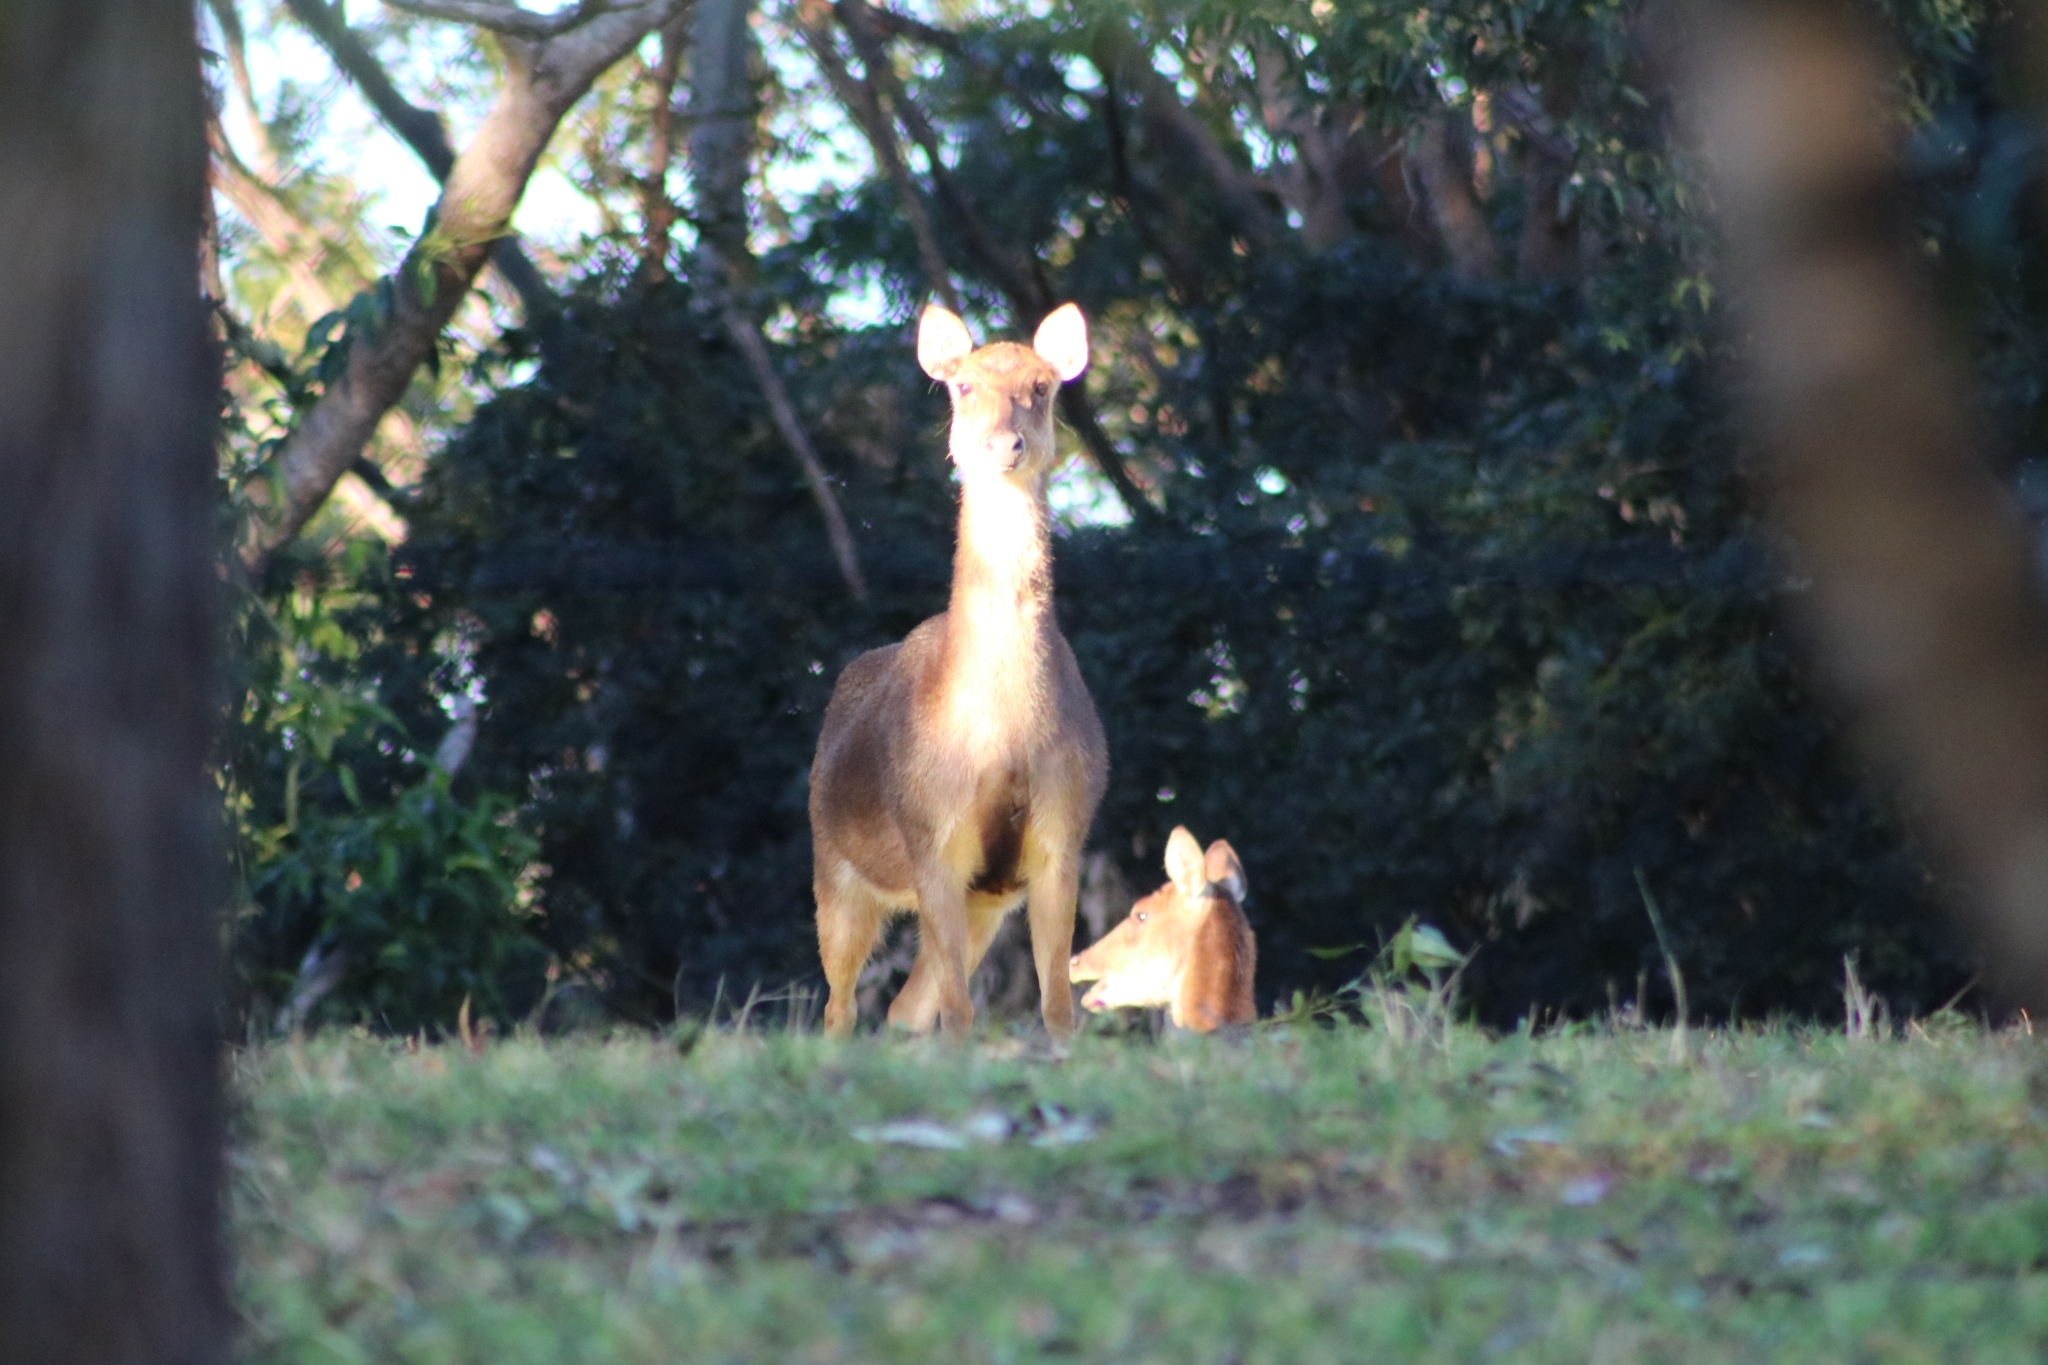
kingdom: Animalia
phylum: Chordata
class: Mammalia
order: Artiodactyla
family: Cervidae
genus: Rusa
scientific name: Rusa timorensis
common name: Javan rusa
